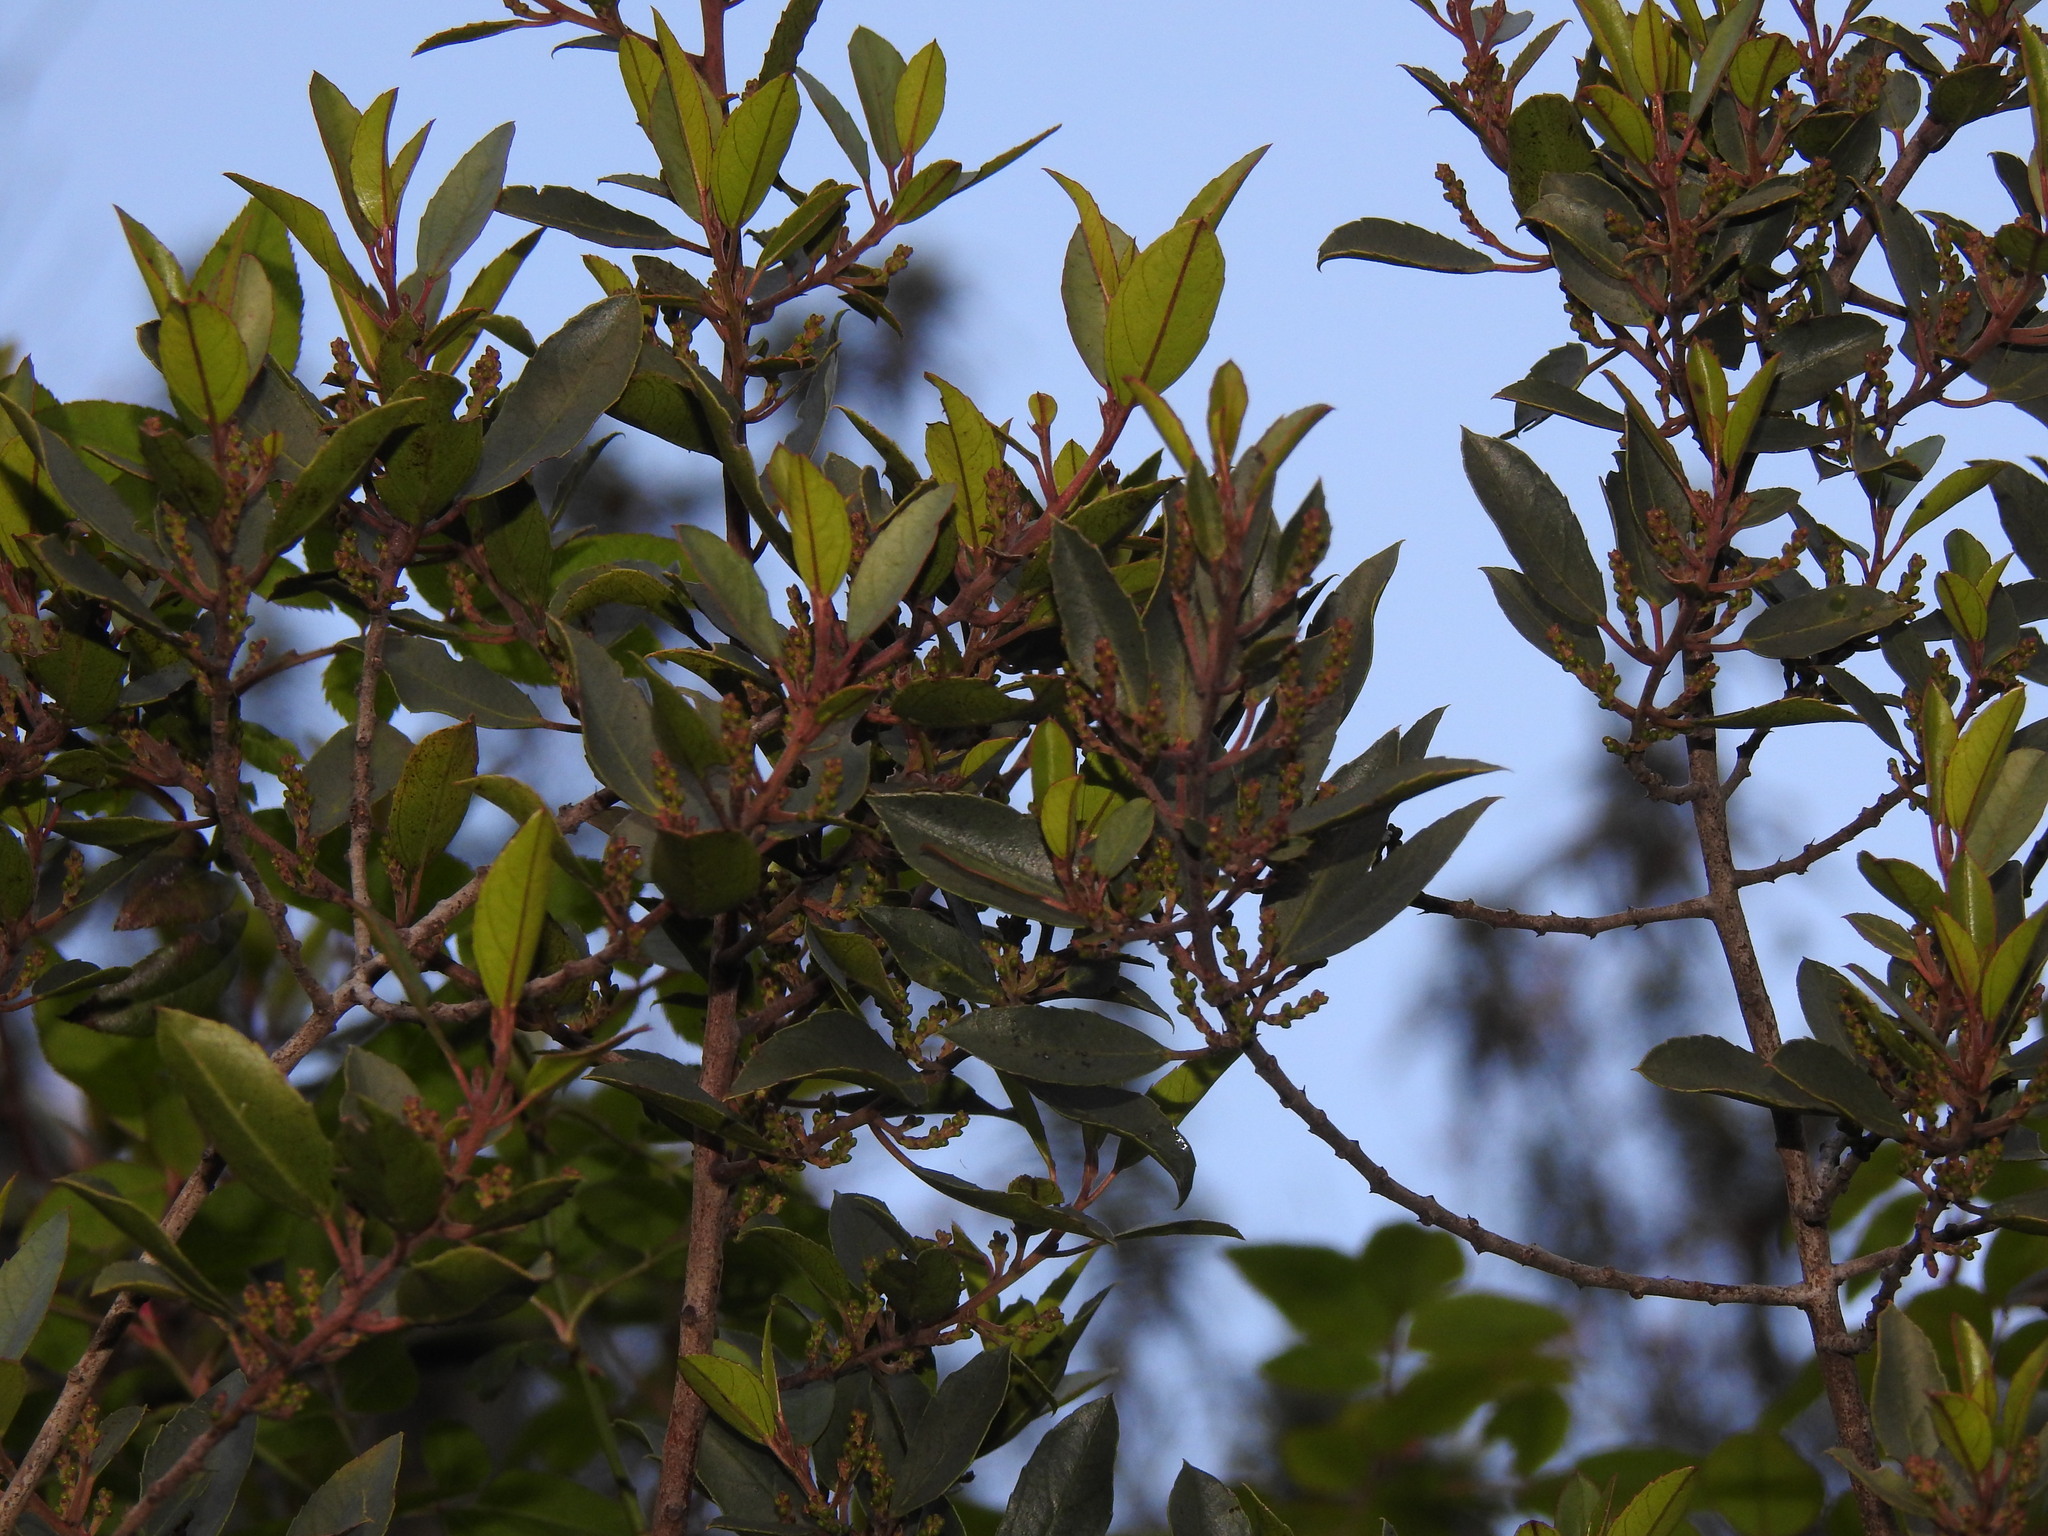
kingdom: Plantae
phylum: Tracheophyta
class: Magnoliopsida
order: Rosales
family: Rhamnaceae
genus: Rhamnus
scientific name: Rhamnus alaternus
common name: Mediterranean buckthorn
